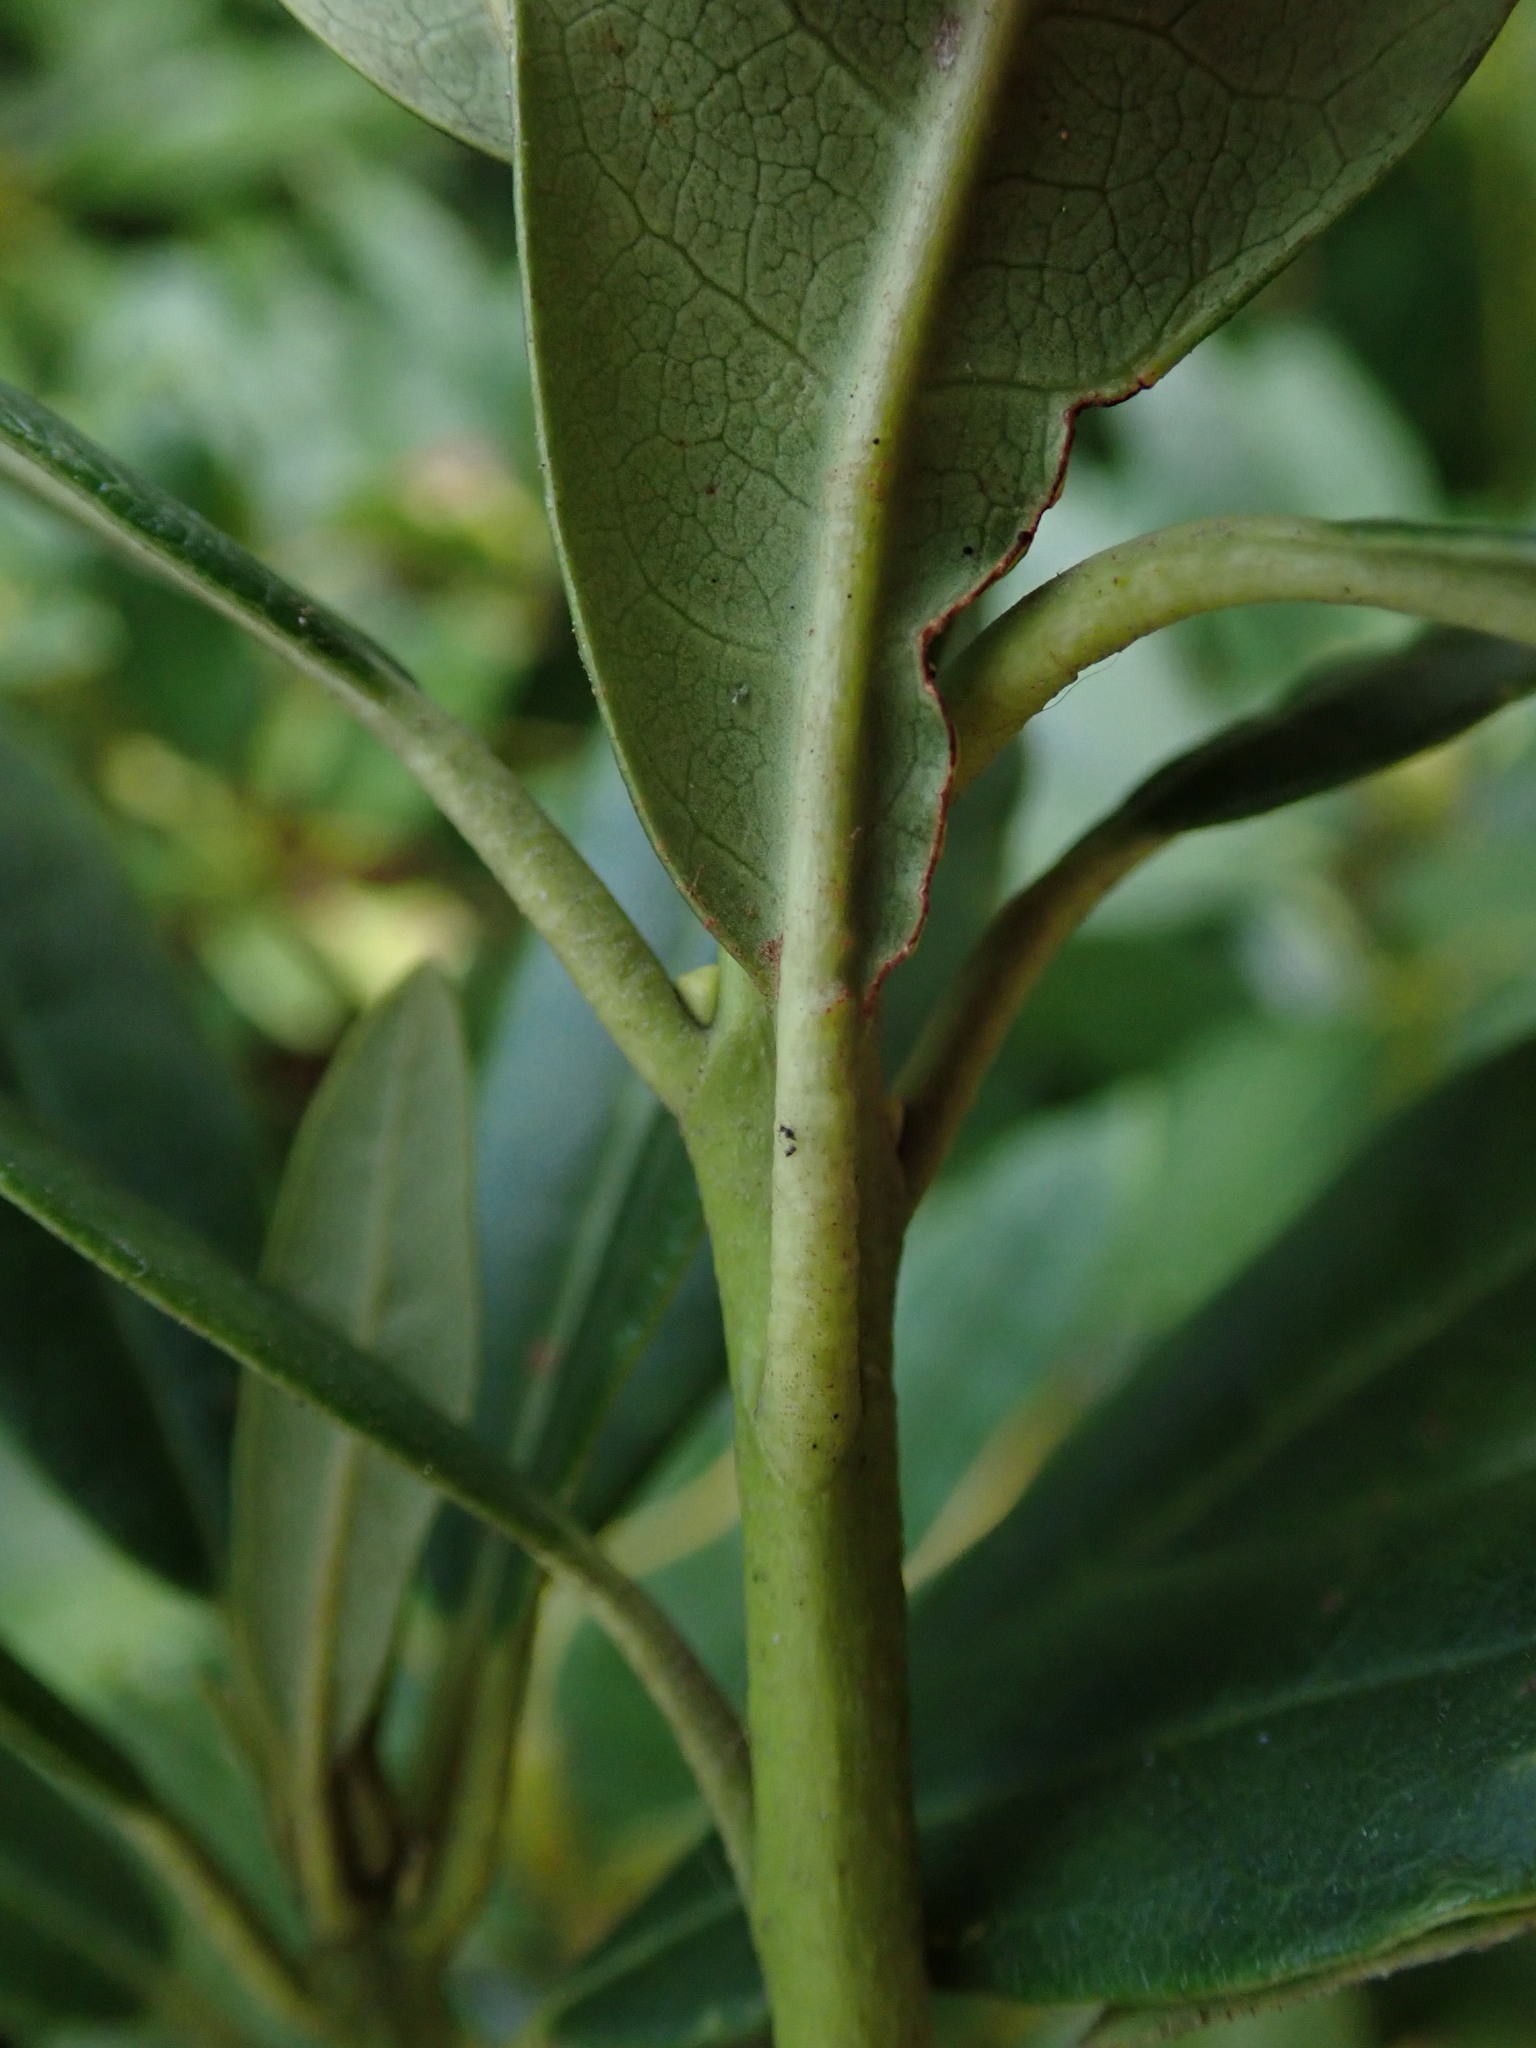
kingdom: Plantae
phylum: Tracheophyta
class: Magnoliopsida
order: Ericales
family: Ericaceae
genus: Rhododendron
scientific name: Rhododendron ponticum
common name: Rhododendron
